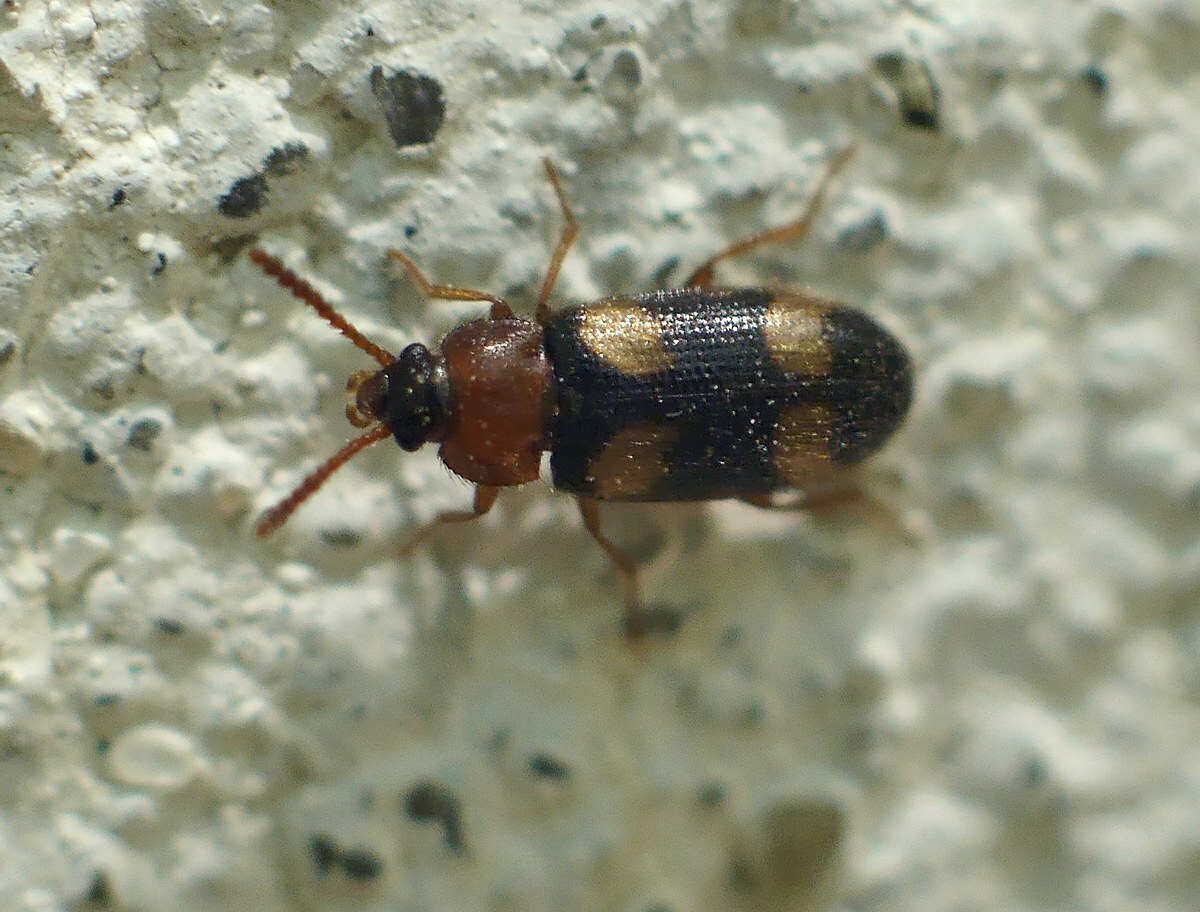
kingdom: Animalia
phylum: Arthropoda
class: Insecta
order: Coleoptera
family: Mycetophagidae
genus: Mycetophagus
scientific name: Mycetophagus fulvicollis
